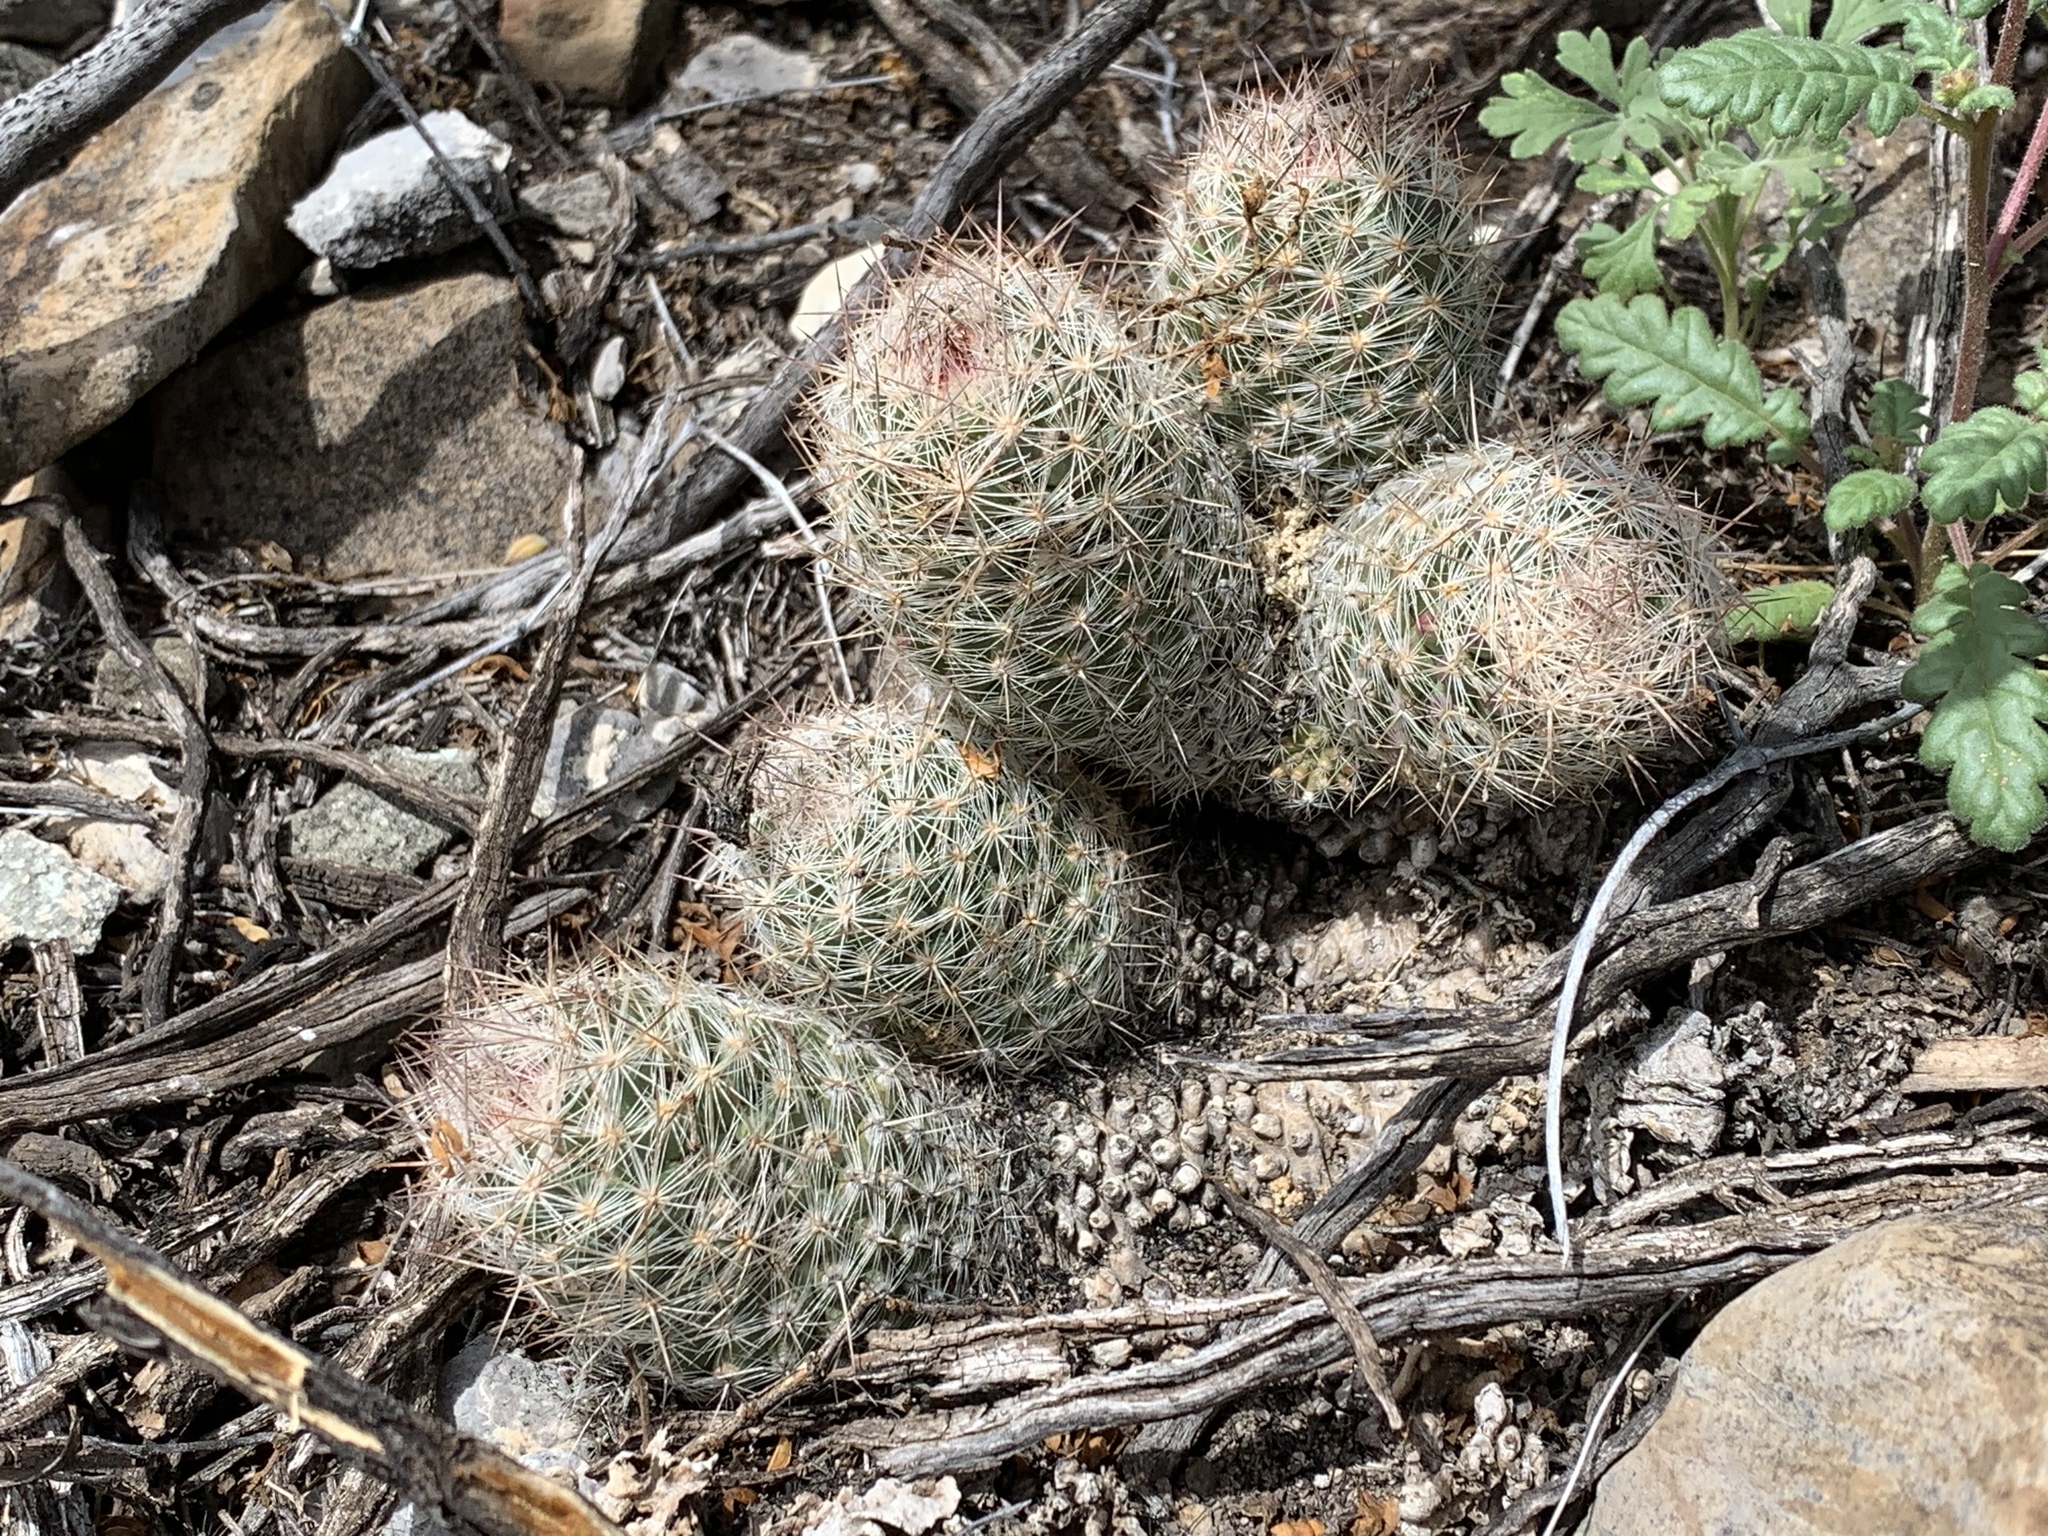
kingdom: Plantae
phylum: Tracheophyta
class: Magnoliopsida
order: Caryophyllales
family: Cactaceae
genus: Pelecyphora
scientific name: Pelecyphora tuberculosa
